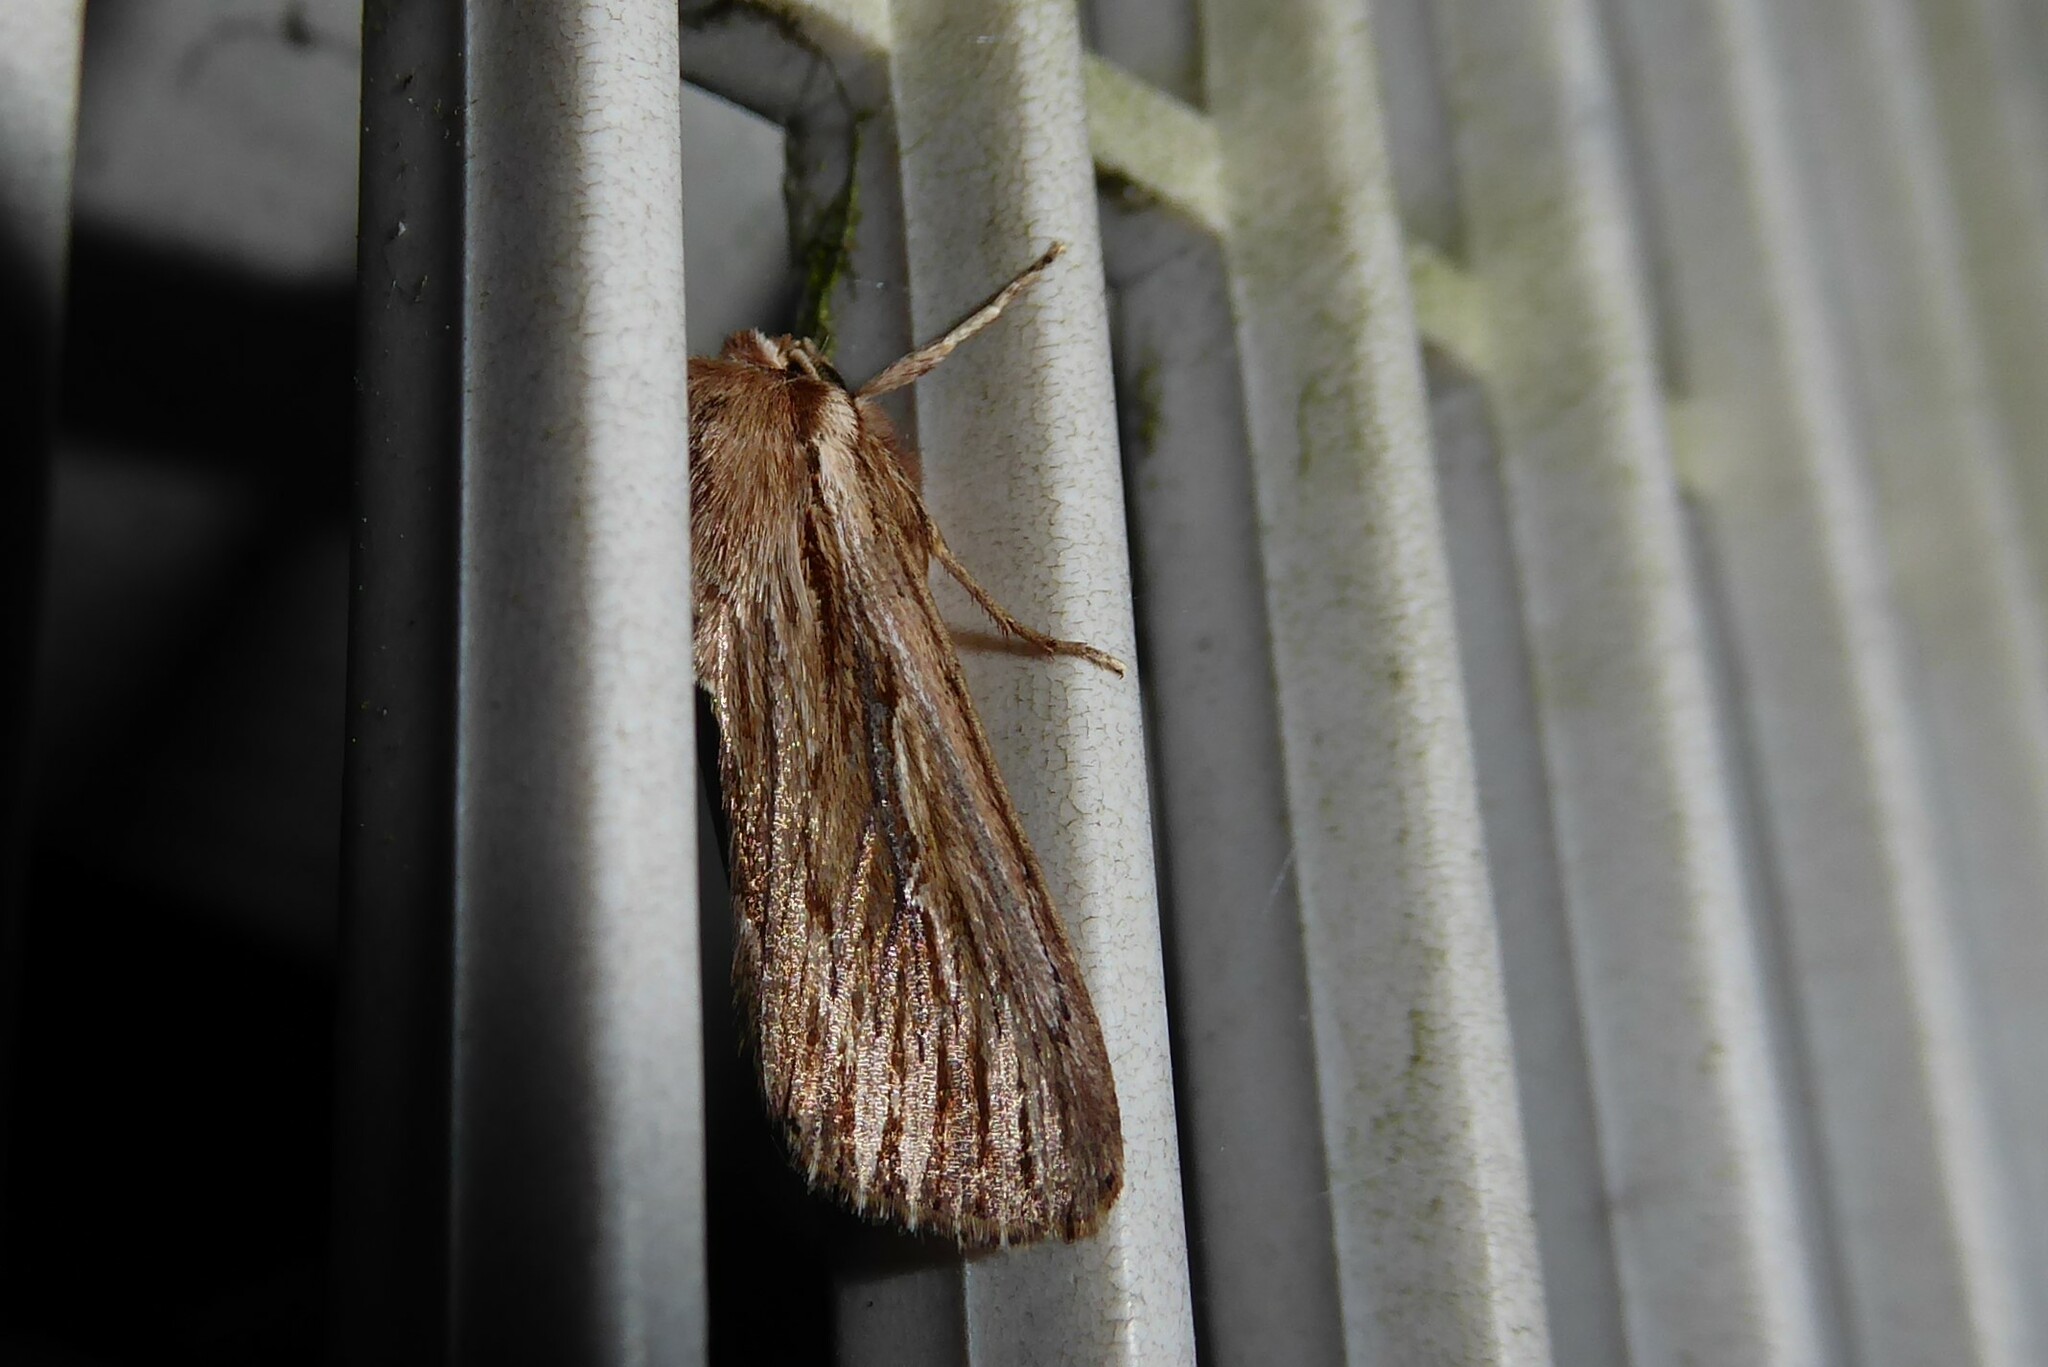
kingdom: Animalia
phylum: Arthropoda
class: Insecta
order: Lepidoptera
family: Noctuidae
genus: Persectania
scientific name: Persectania aversa
